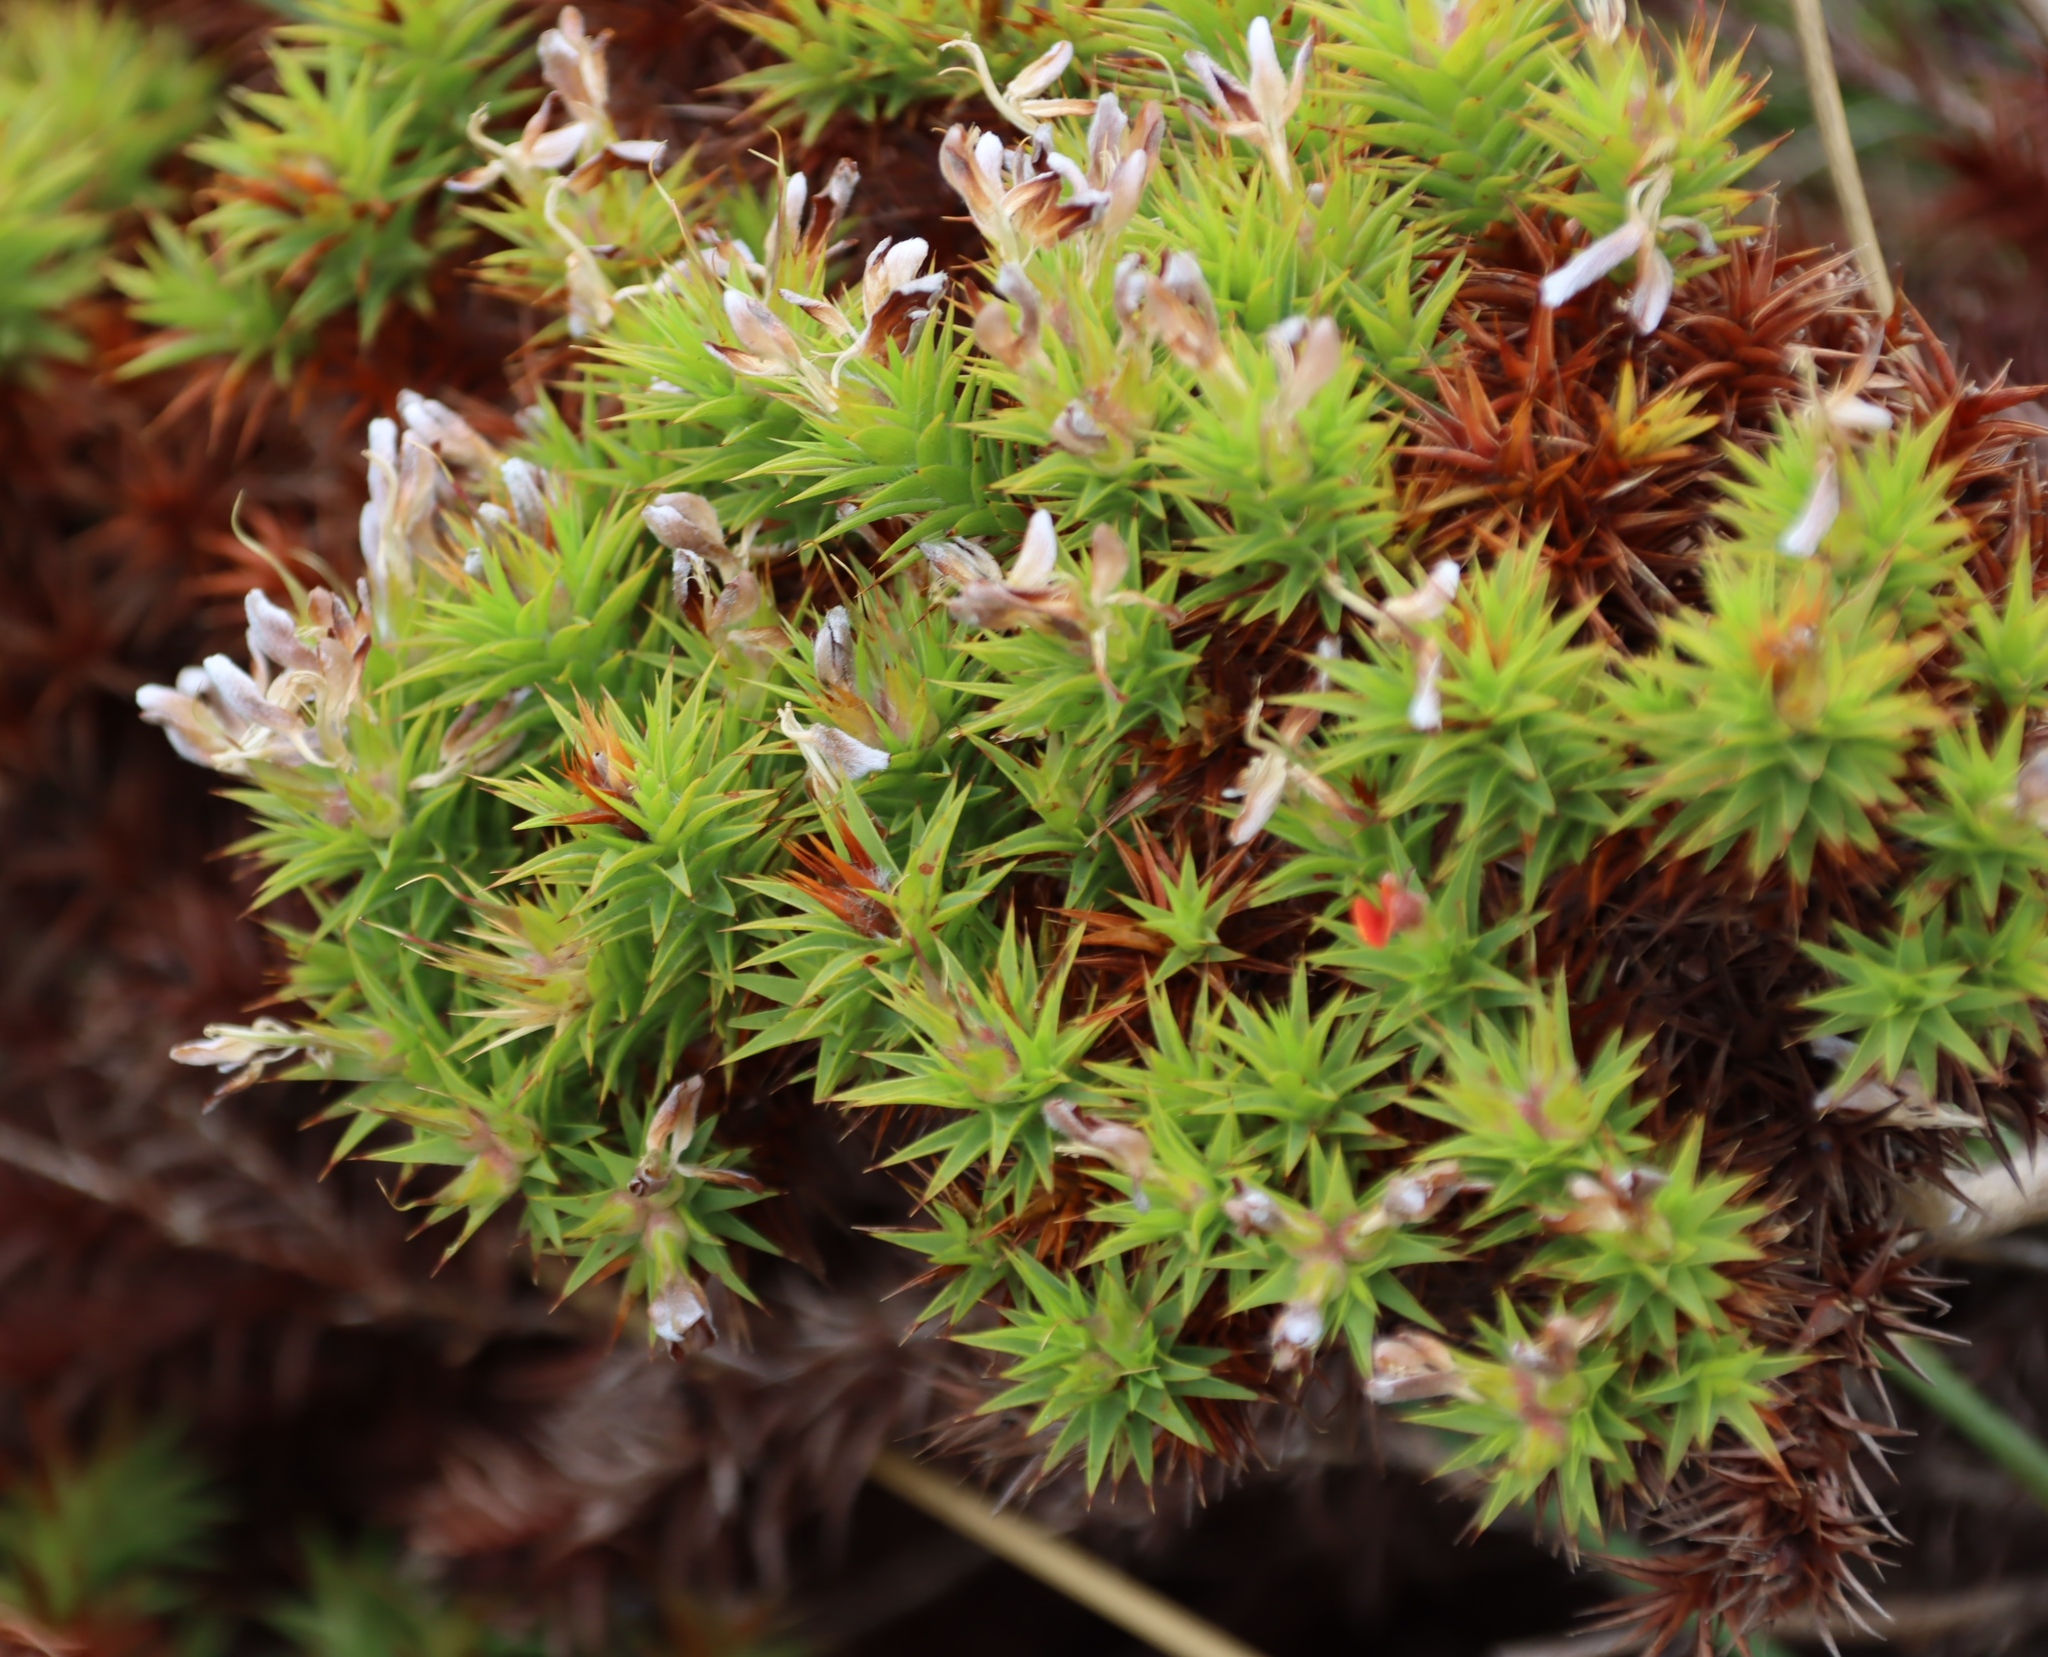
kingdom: Plantae
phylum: Tracheophyta
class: Magnoliopsida
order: Fabales
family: Fabaceae
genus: Aspalathus
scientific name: Aspalathus barbata
